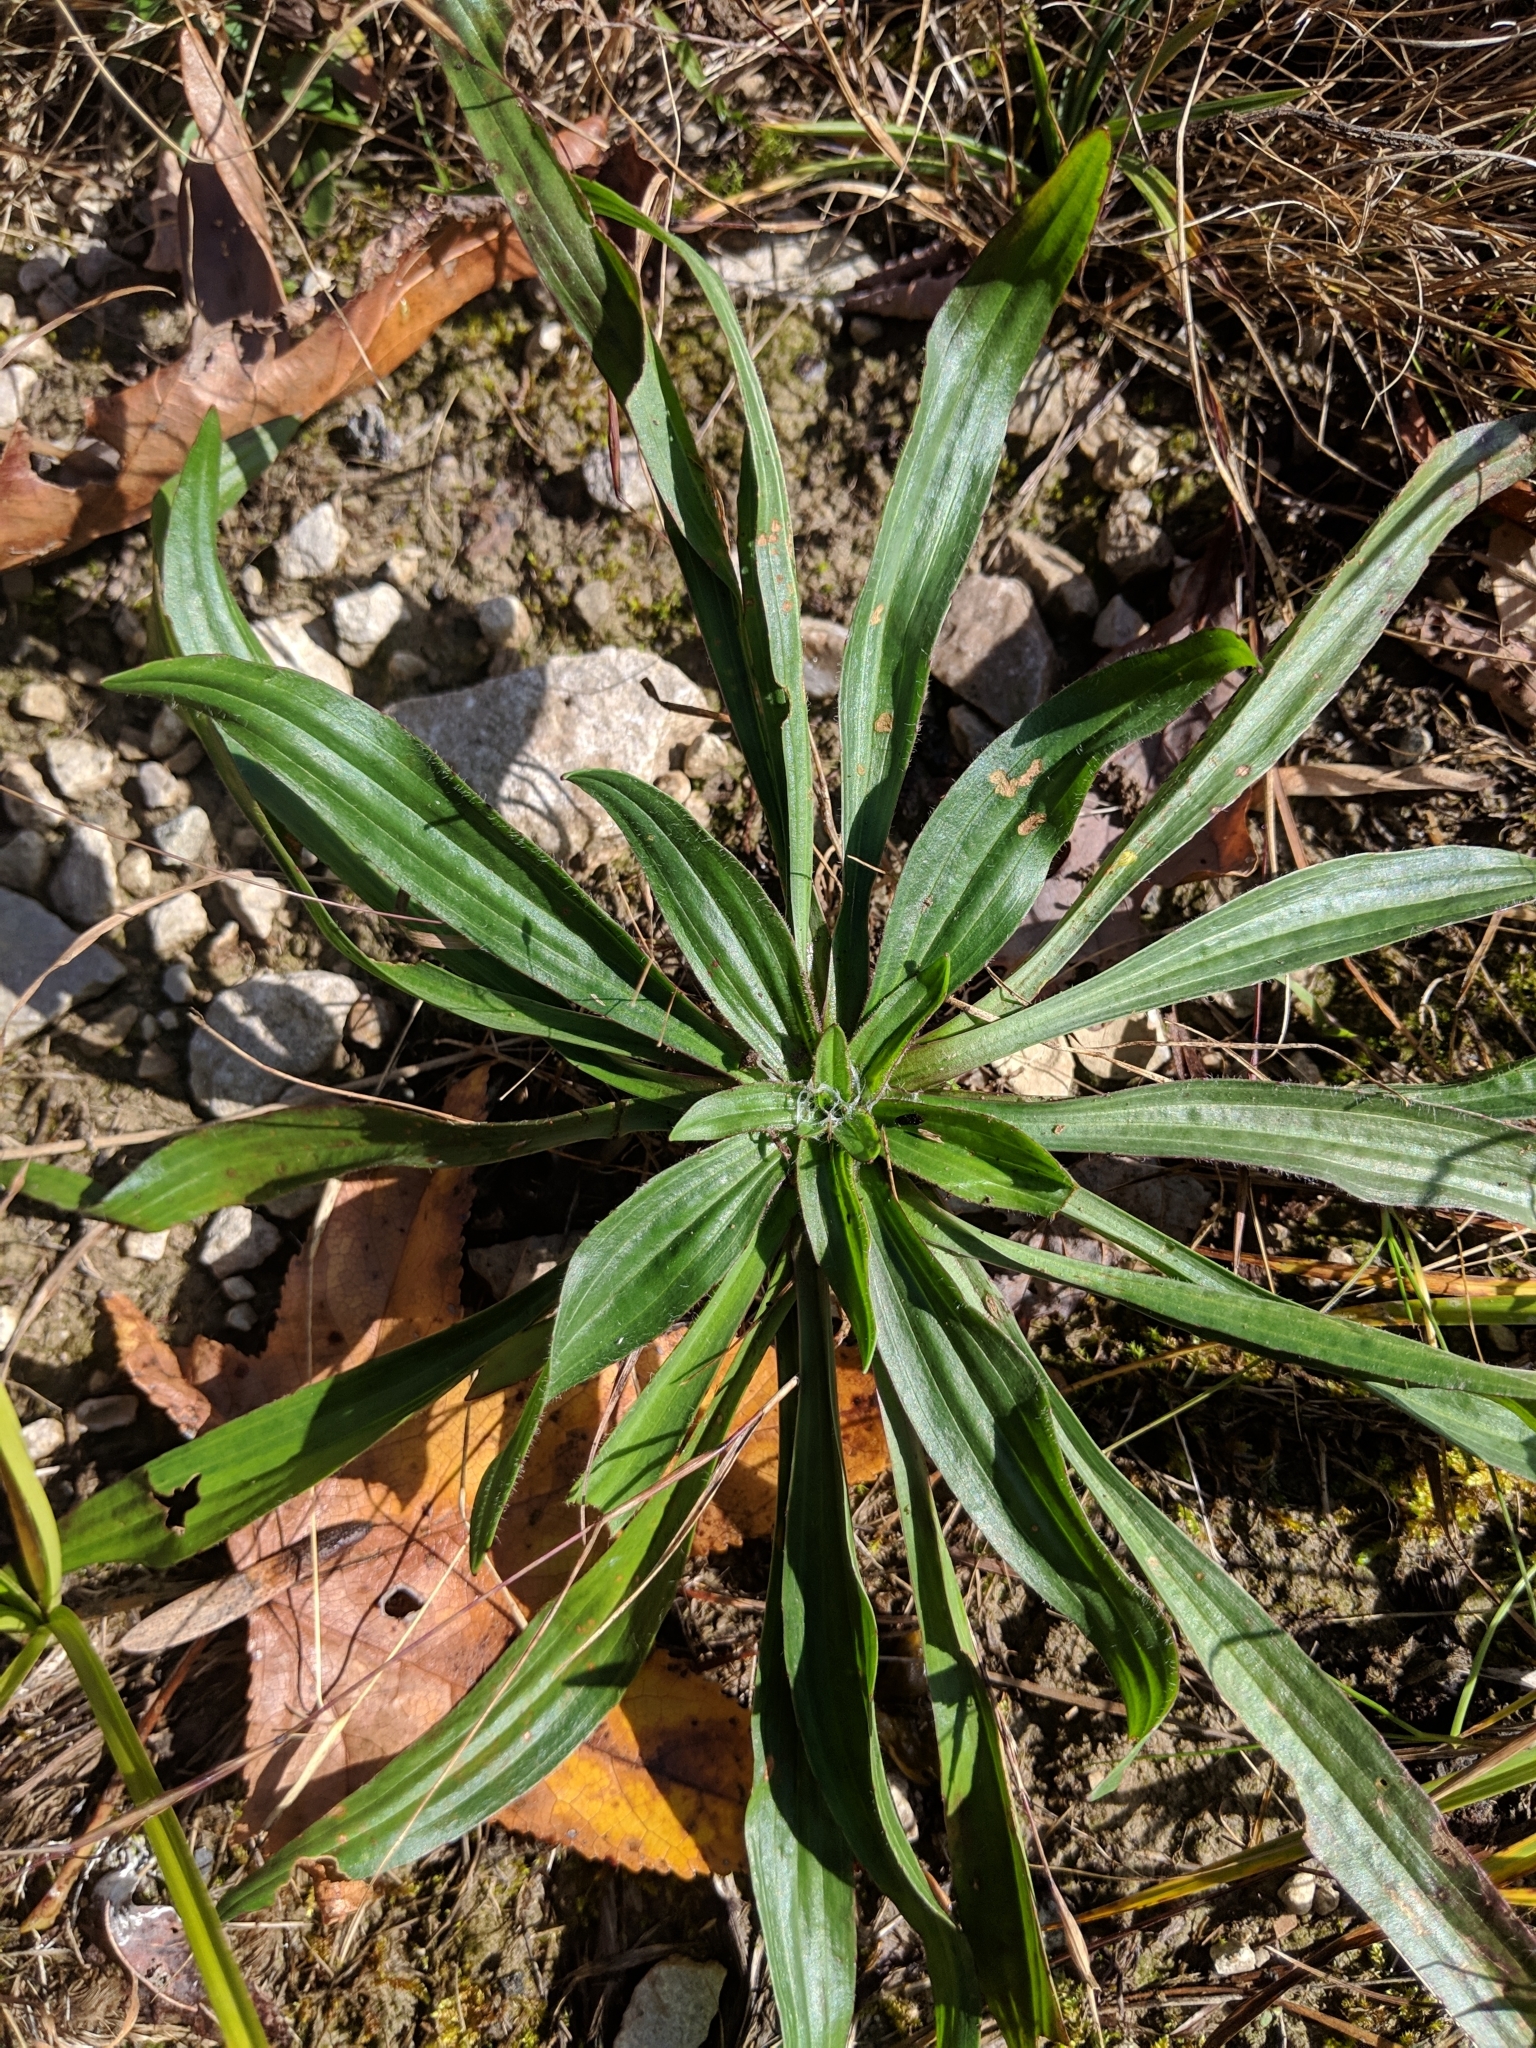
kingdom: Plantae
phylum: Tracheophyta
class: Magnoliopsida
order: Lamiales
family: Plantaginaceae
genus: Plantago
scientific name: Plantago lanceolata
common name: Ribwort plantain
